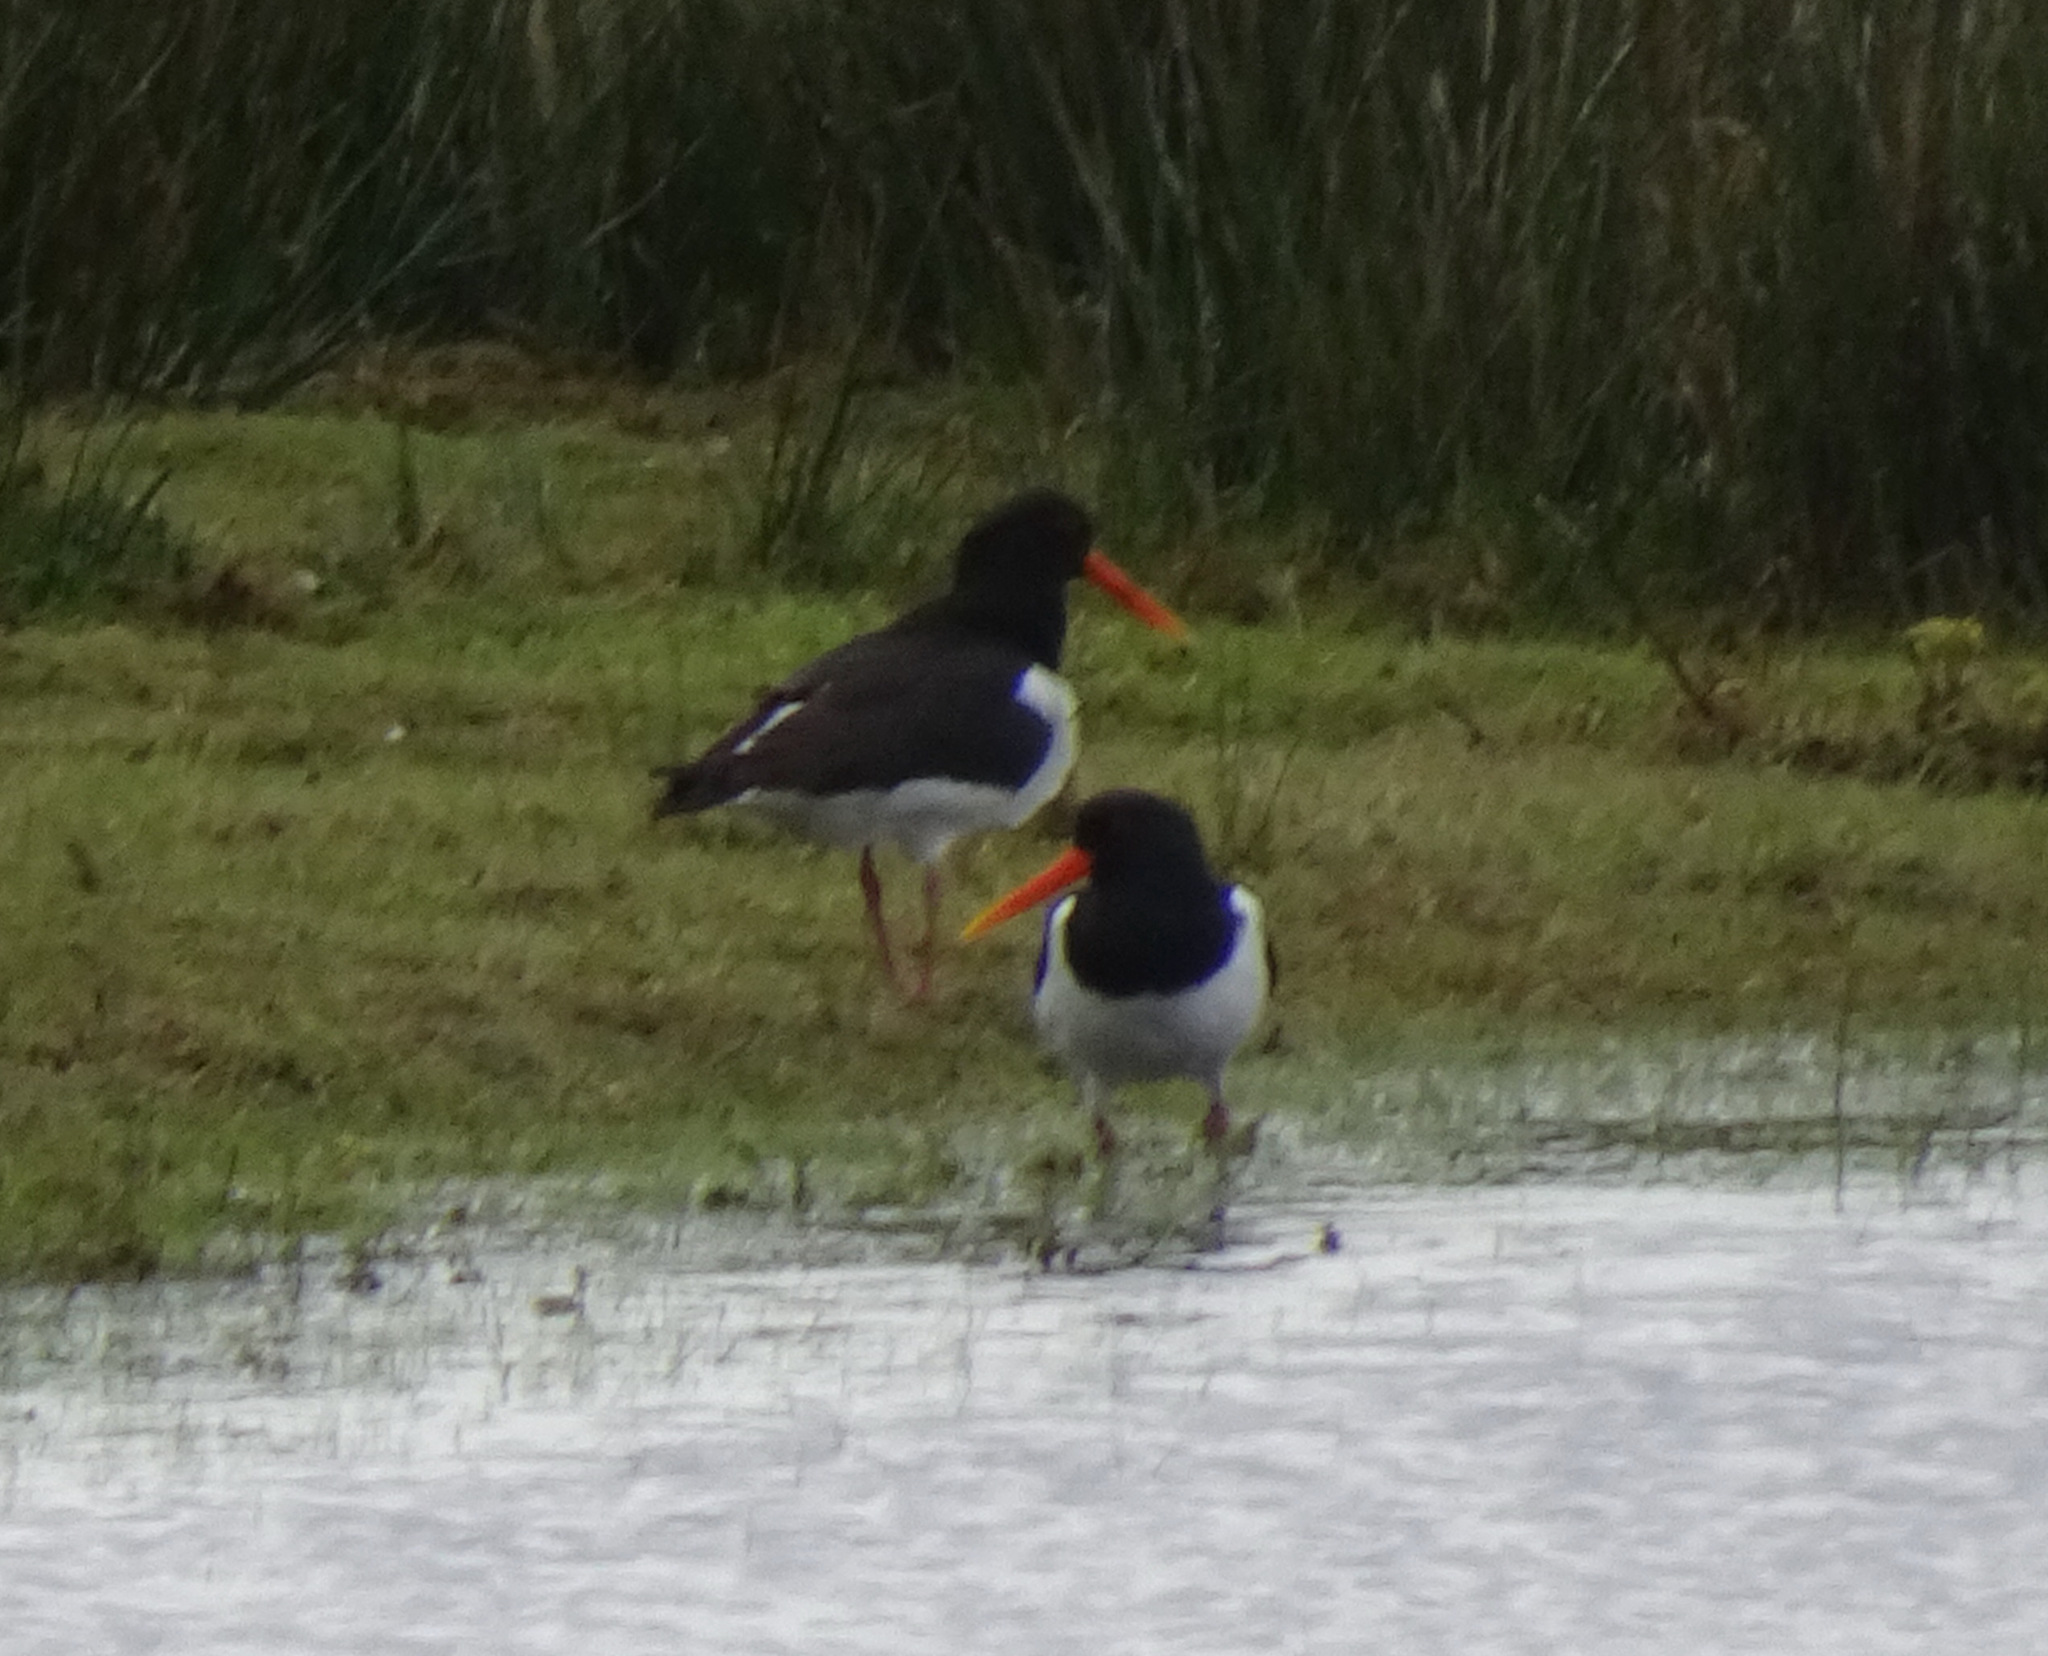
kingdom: Animalia
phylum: Chordata
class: Aves
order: Charadriiformes
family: Haematopodidae
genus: Haematopus
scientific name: Haematopus ostralegus
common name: Eurasian oystercatcher
